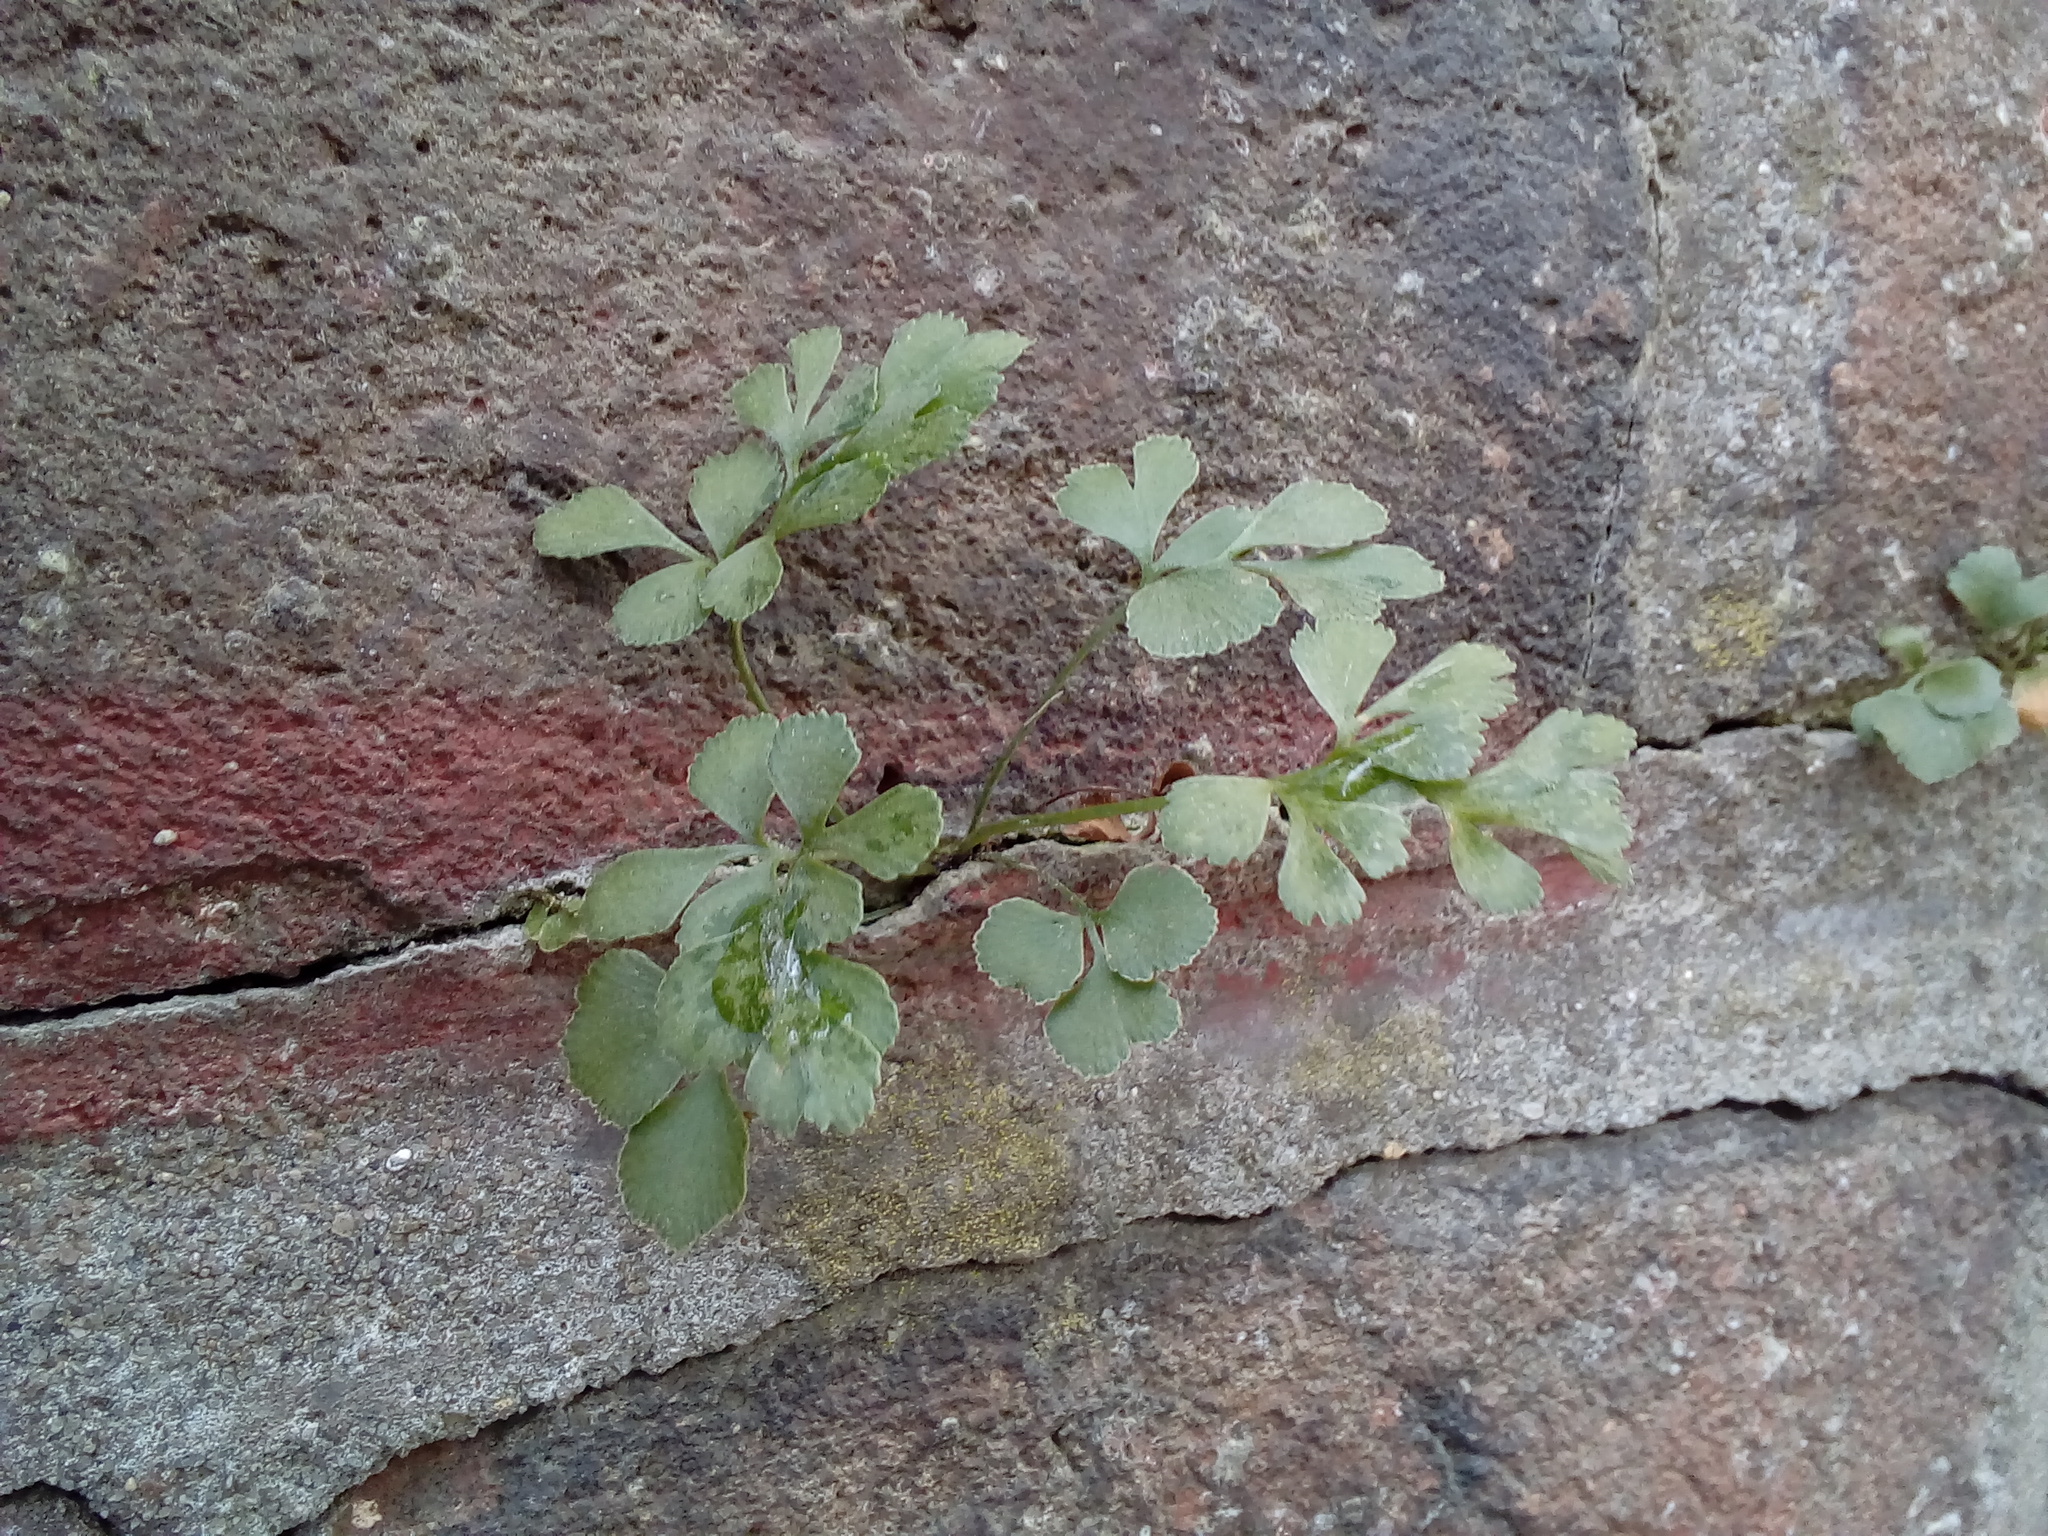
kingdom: Plantae
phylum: Tracheophyta
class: Polypodiopsida
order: Polypodiales
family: Aspleniaceae
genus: Asplenium
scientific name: Asplenium ruta-muraria
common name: Wall-rue
